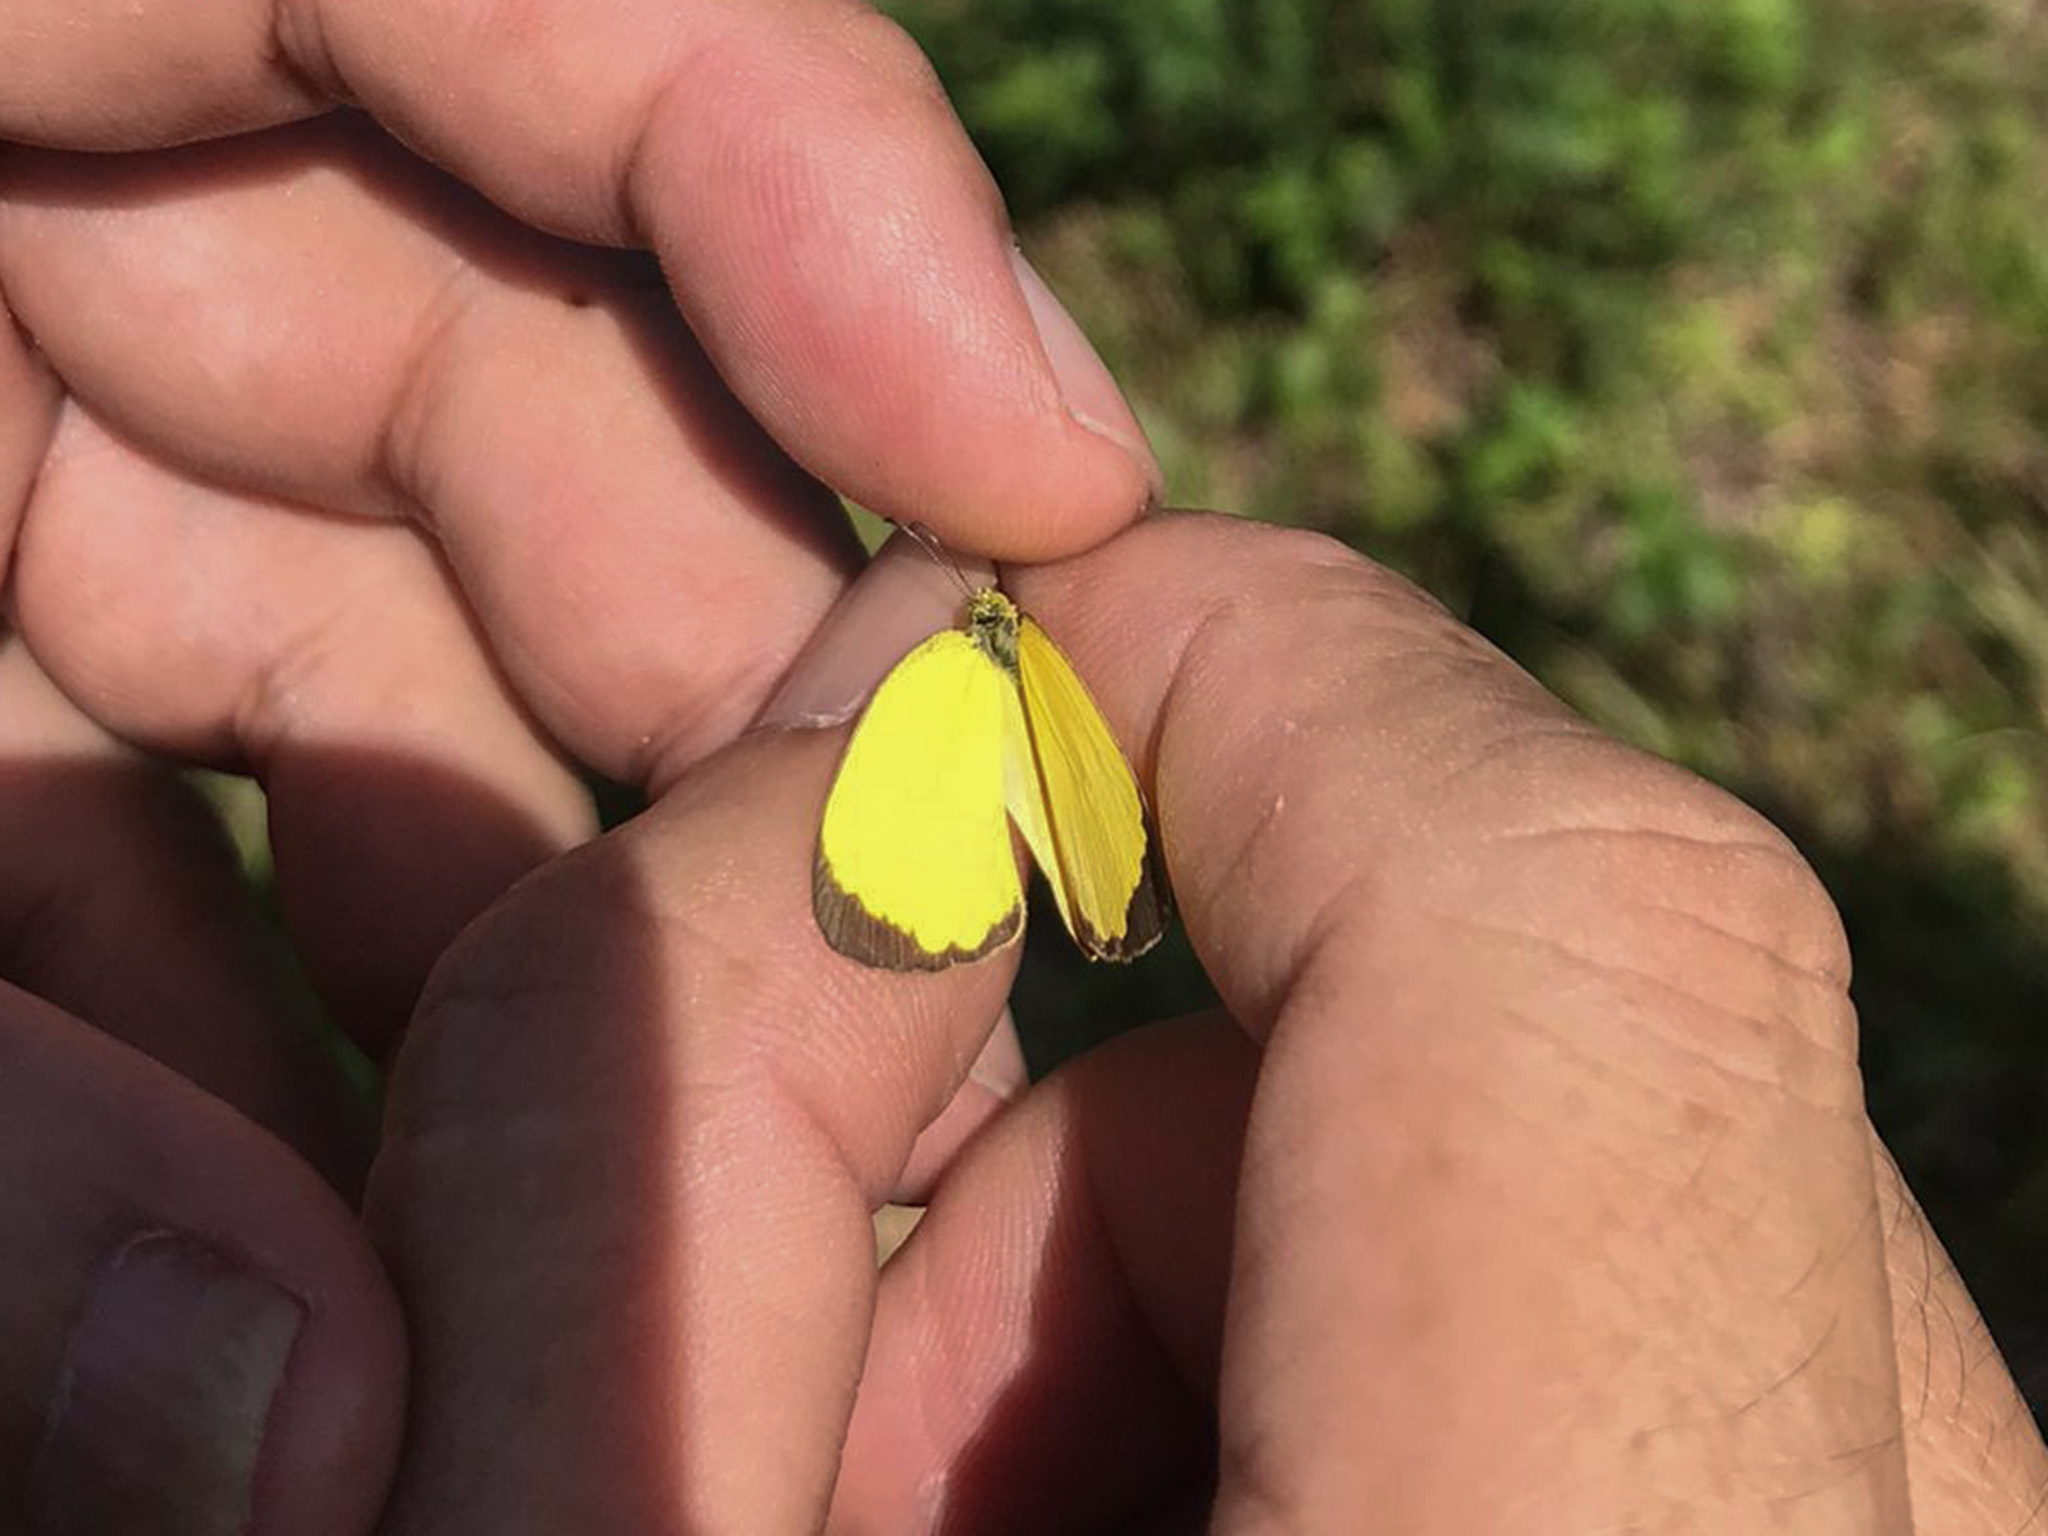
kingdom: Animalia
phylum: Arthropoda
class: Insecta
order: Lepidoptera
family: Pieridae
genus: Eurema
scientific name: Eurema blanda
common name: Three-spot grass yellow
